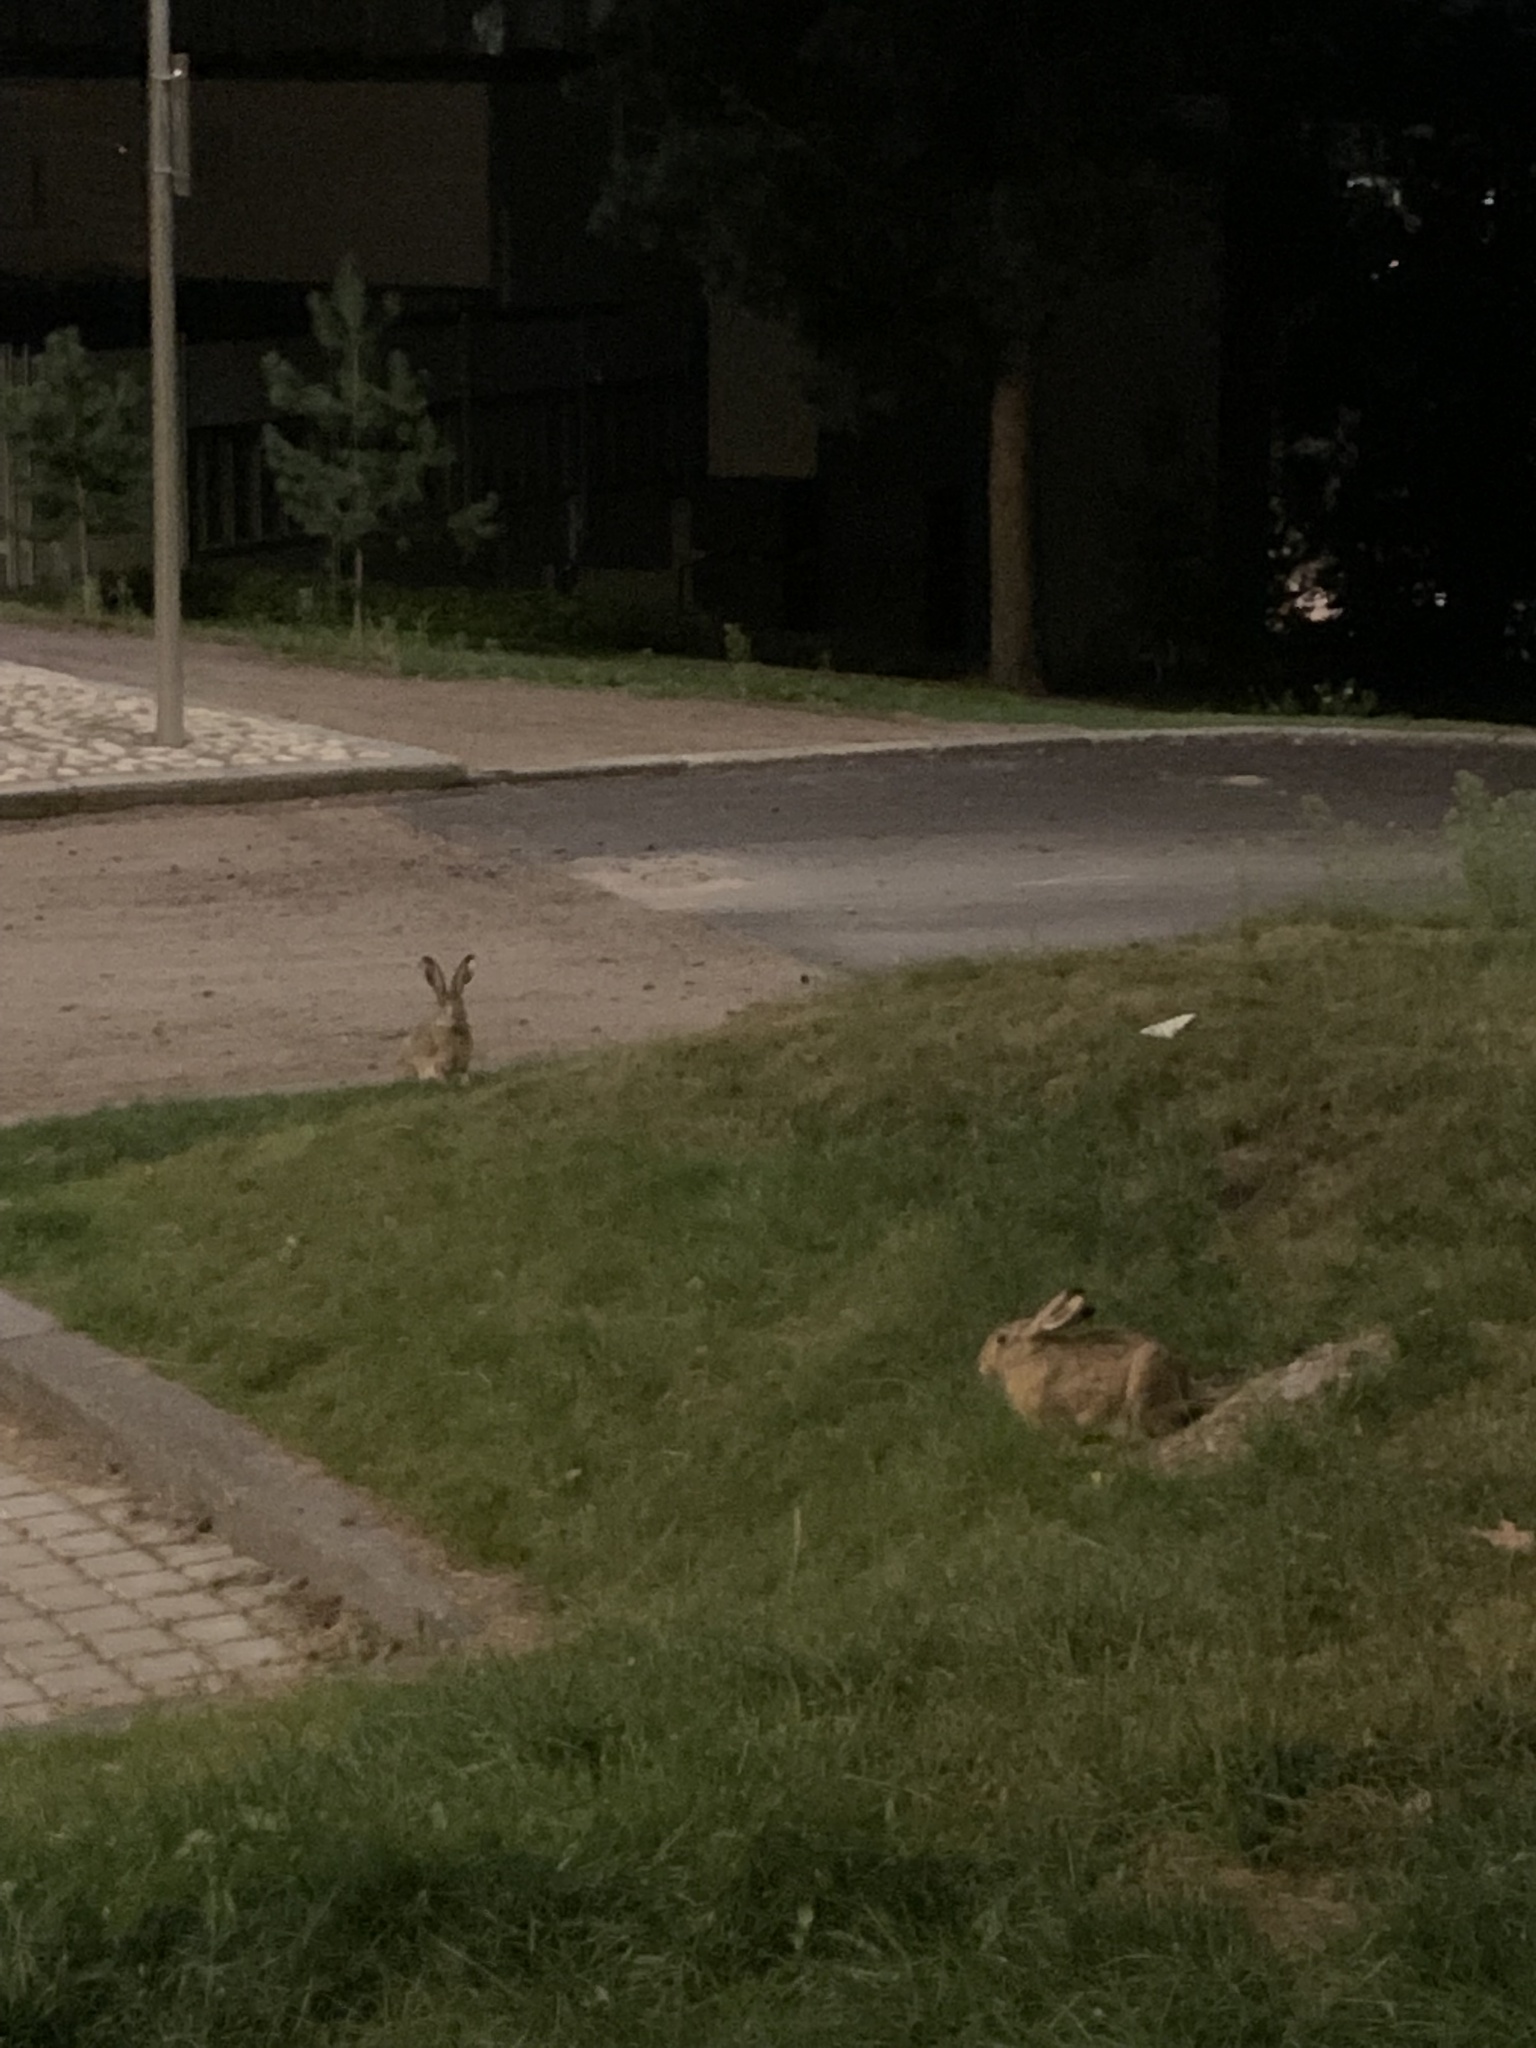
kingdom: Animalia
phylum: Chordata
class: Mammalia
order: Lagomorpha
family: Leporidae
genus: Lepus
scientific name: Lepus europaeus
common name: European hare
